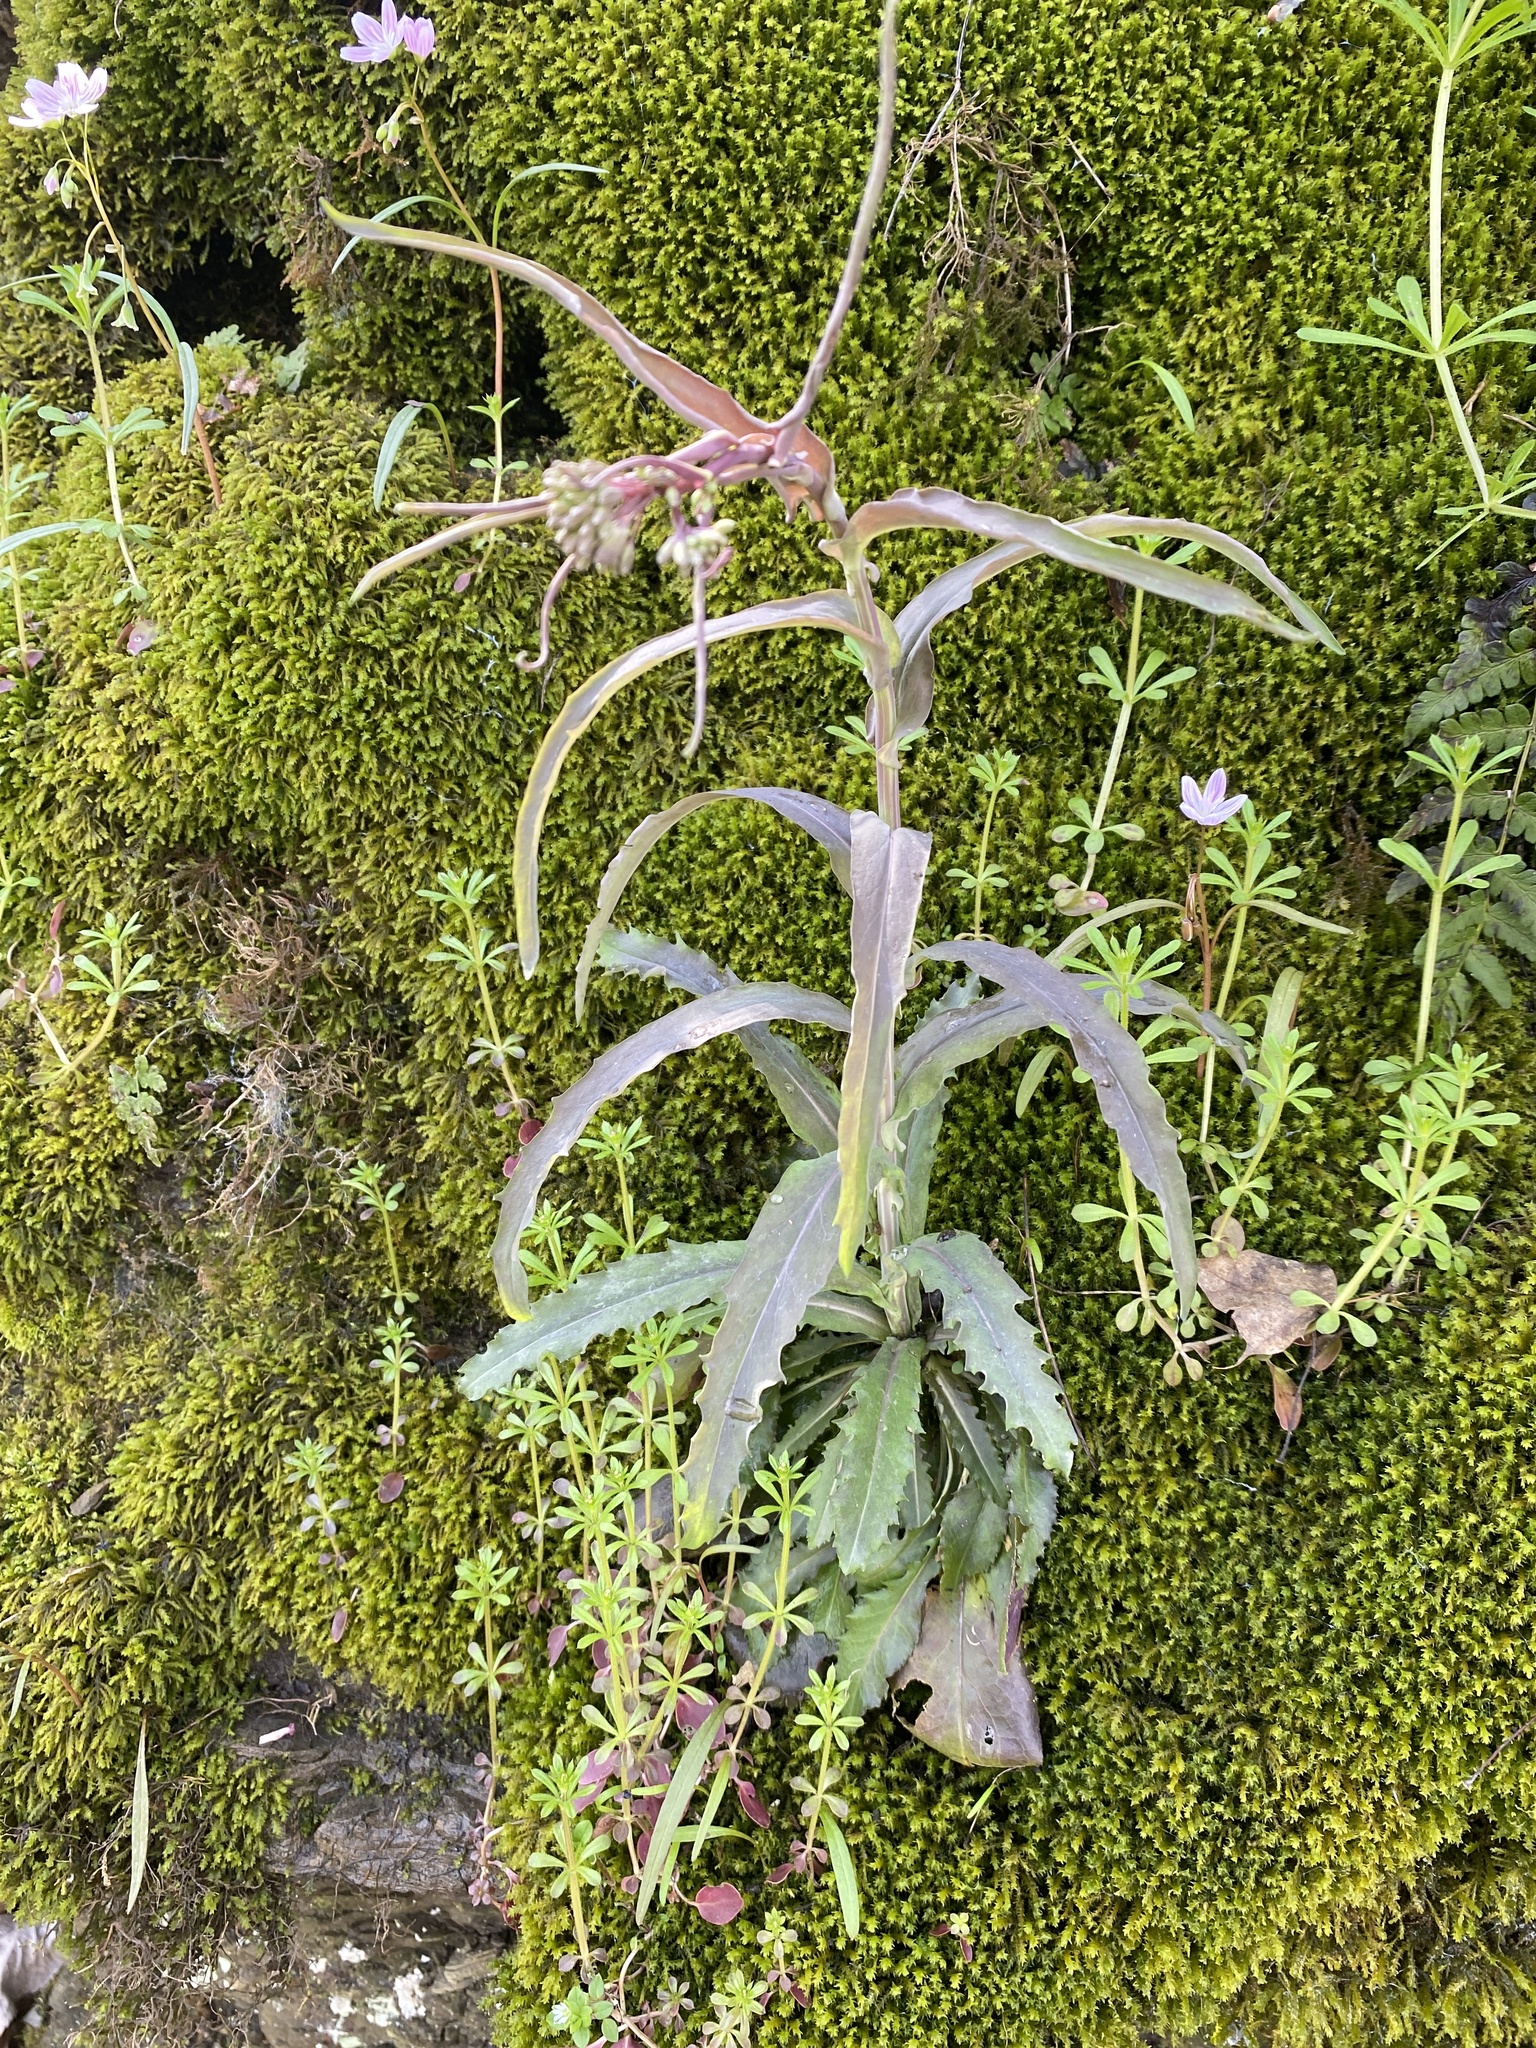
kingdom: Plantae
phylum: Tracheophyta
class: Magnoliopsida
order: Brassicales
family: Brassicaceae
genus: Borodinia
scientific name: Borodinia laevigata
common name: Smooth rockcress
